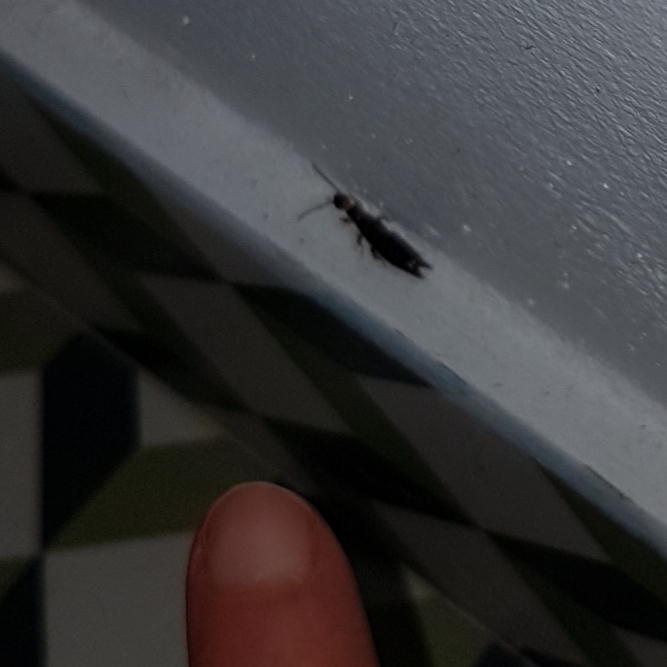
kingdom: Animalia
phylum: Arthropoda
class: Insecta
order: Dermaptera
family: Anisolabididae
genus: Euborellia
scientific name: Euborellia annulipes
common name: Ringlegged earwig
